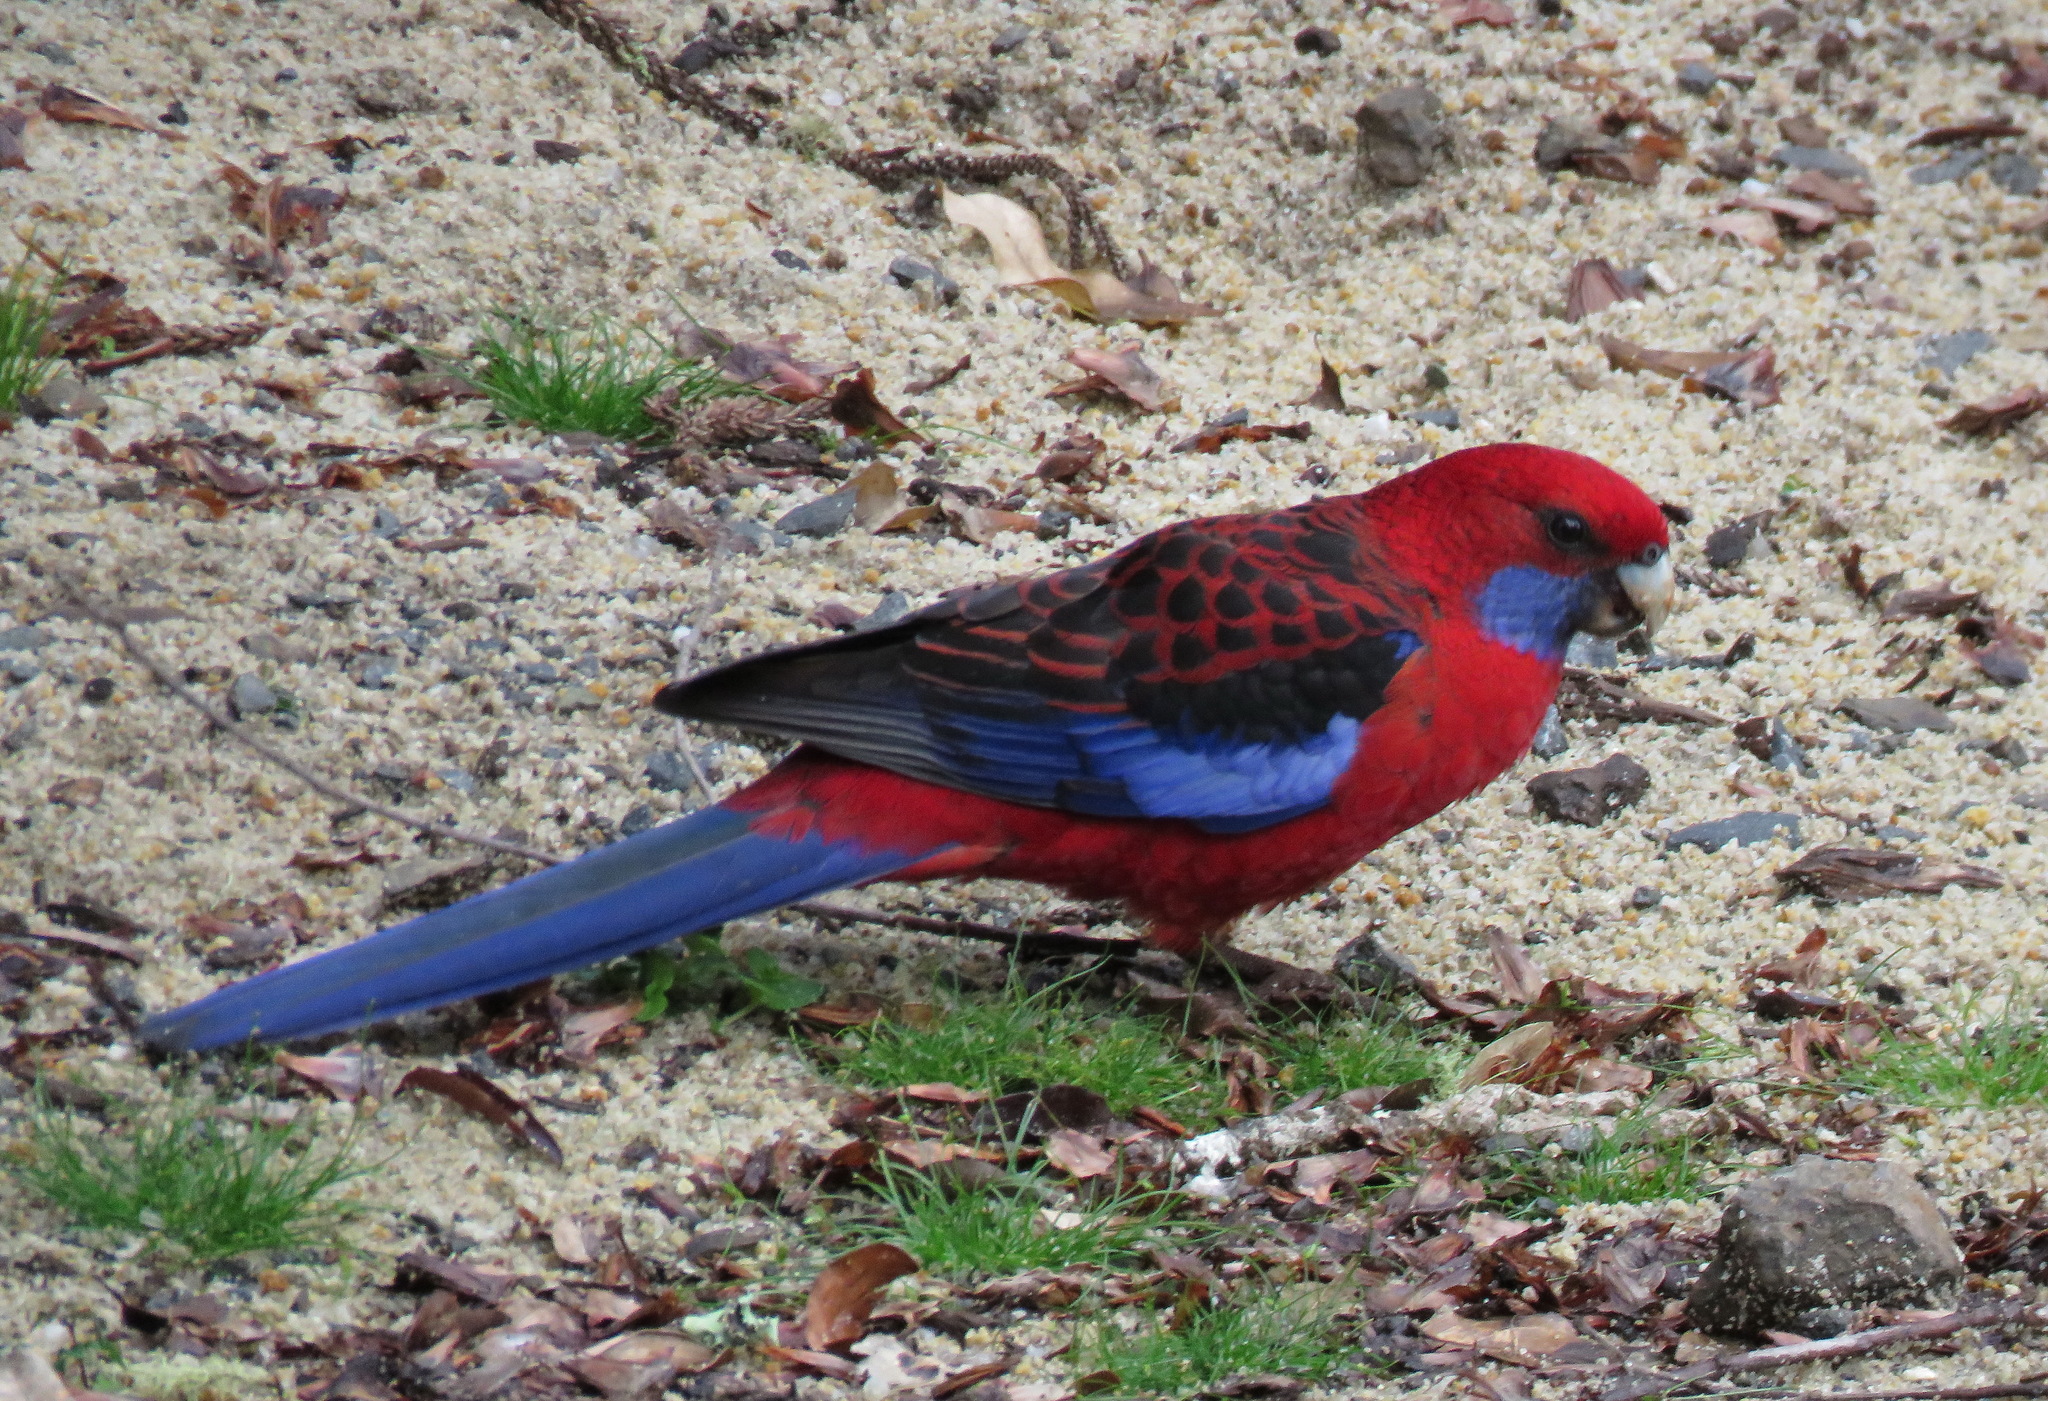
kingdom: Animalia
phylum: Chordata
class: Aves
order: Psittaciformes
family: Psittacidae
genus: Platycercus
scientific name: Platycercus elegans
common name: Crimson rosella
